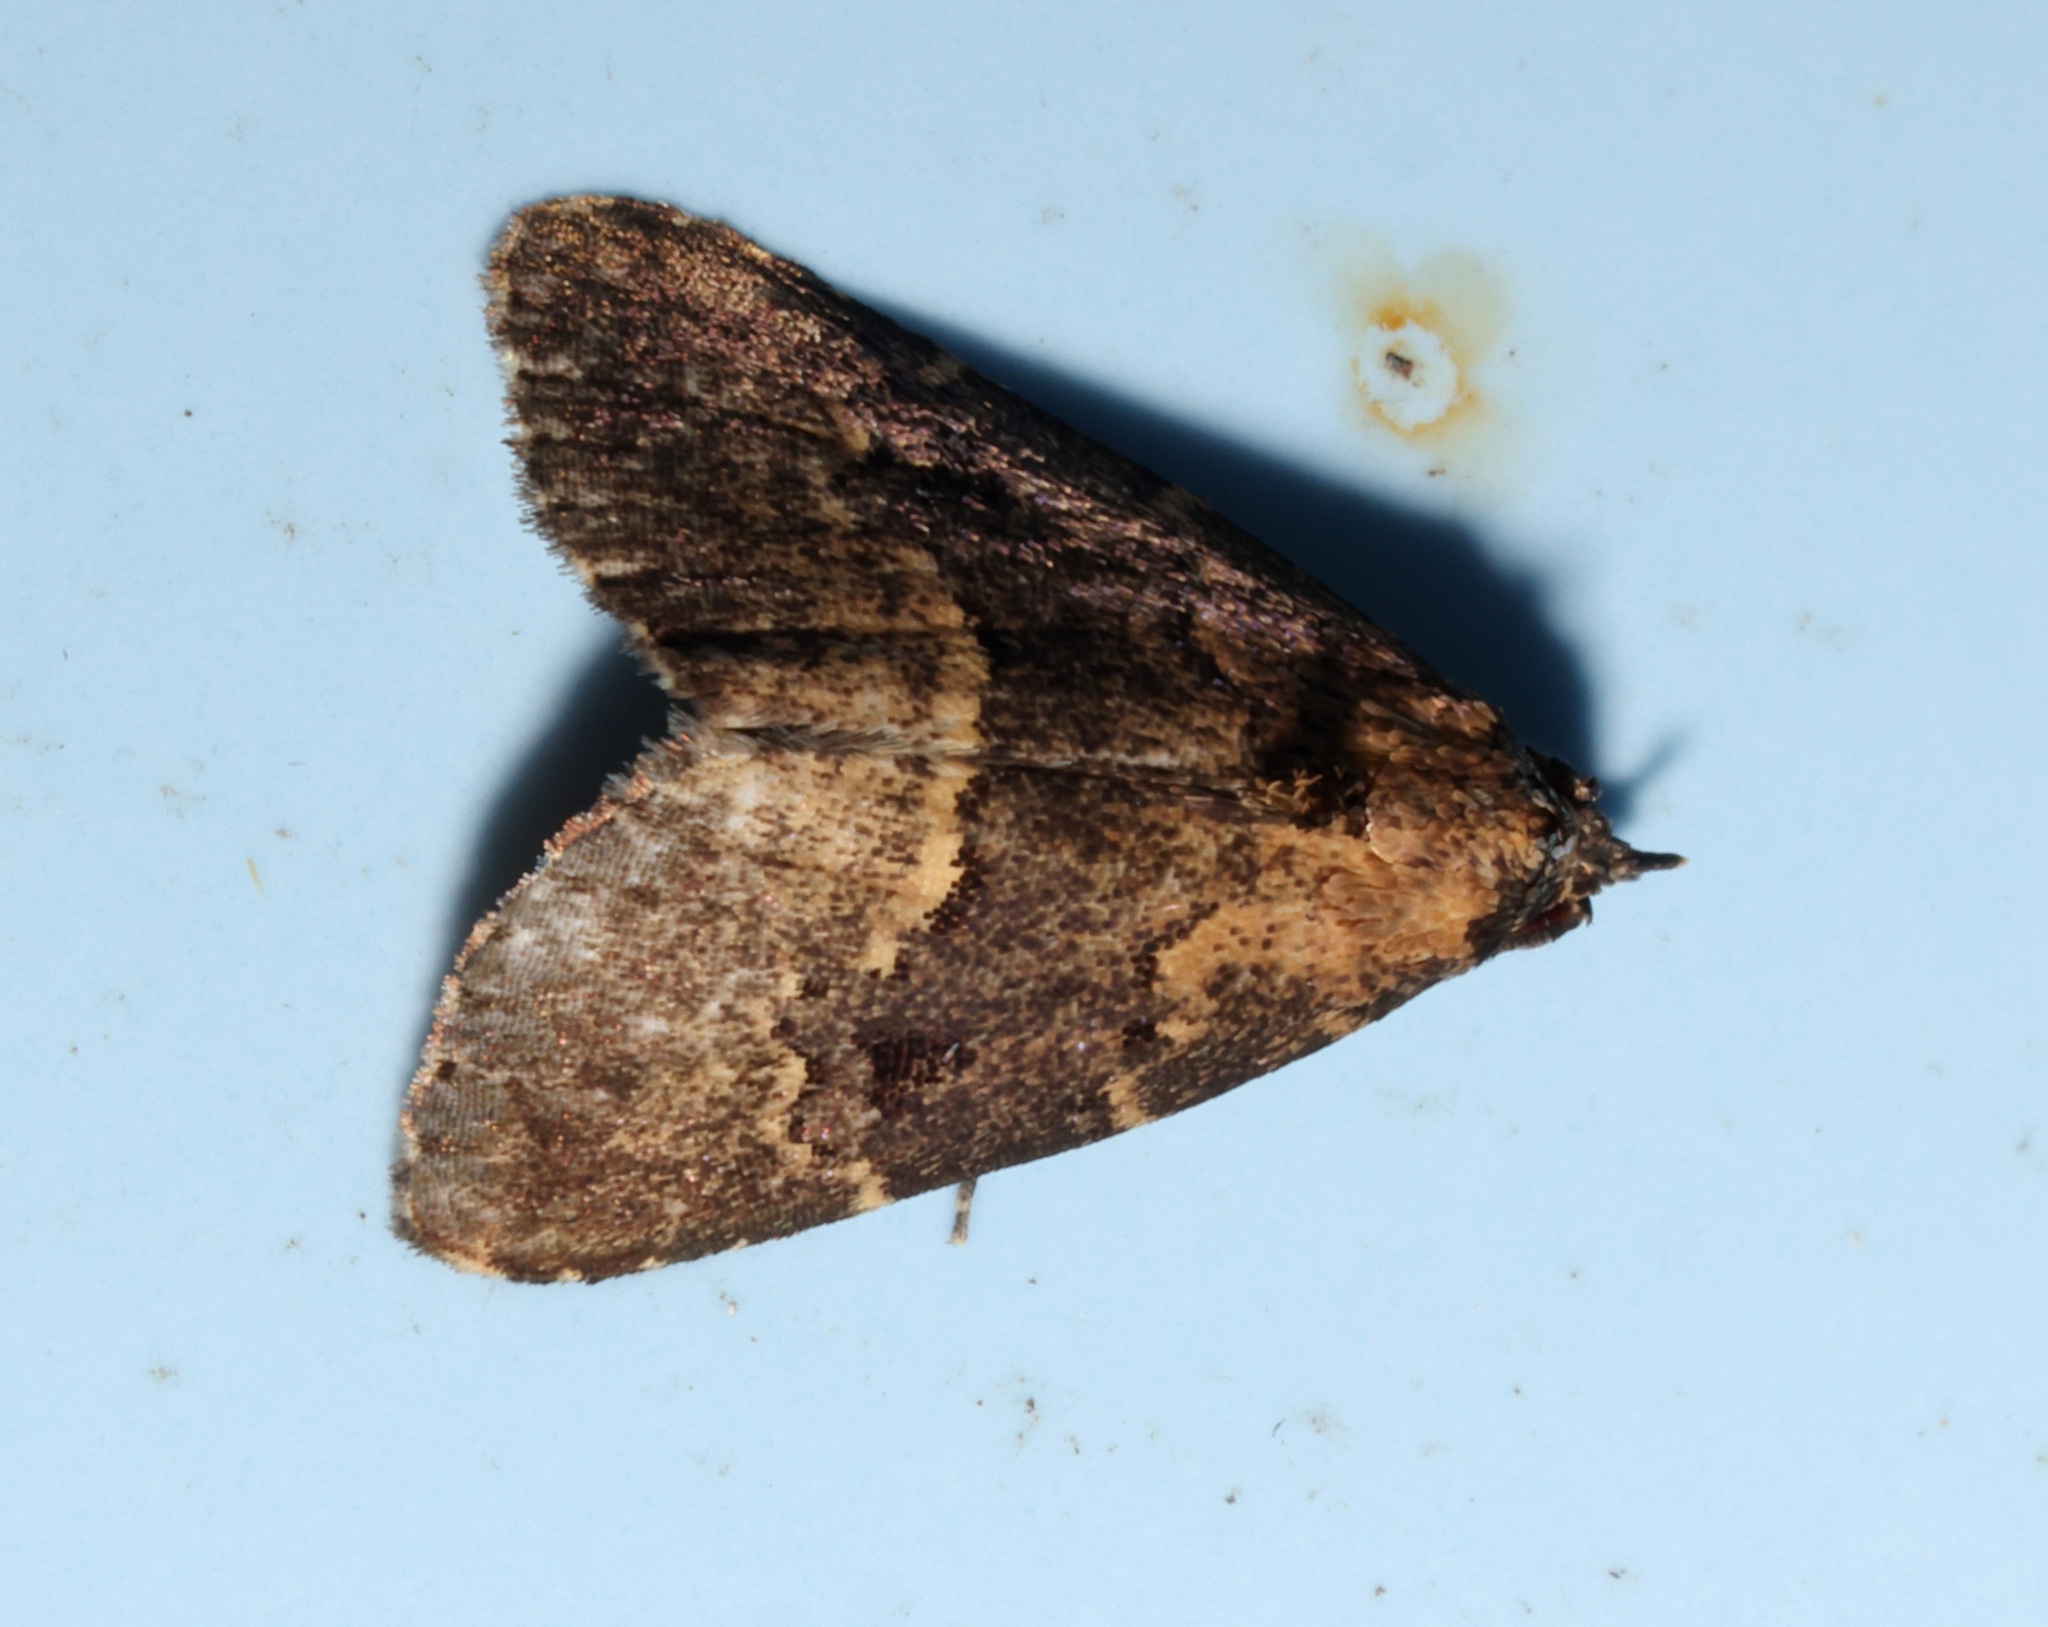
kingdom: Animalia
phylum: Arthropoda
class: Insecta
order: Lepidoptera
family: Erebidae
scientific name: Erebidae
